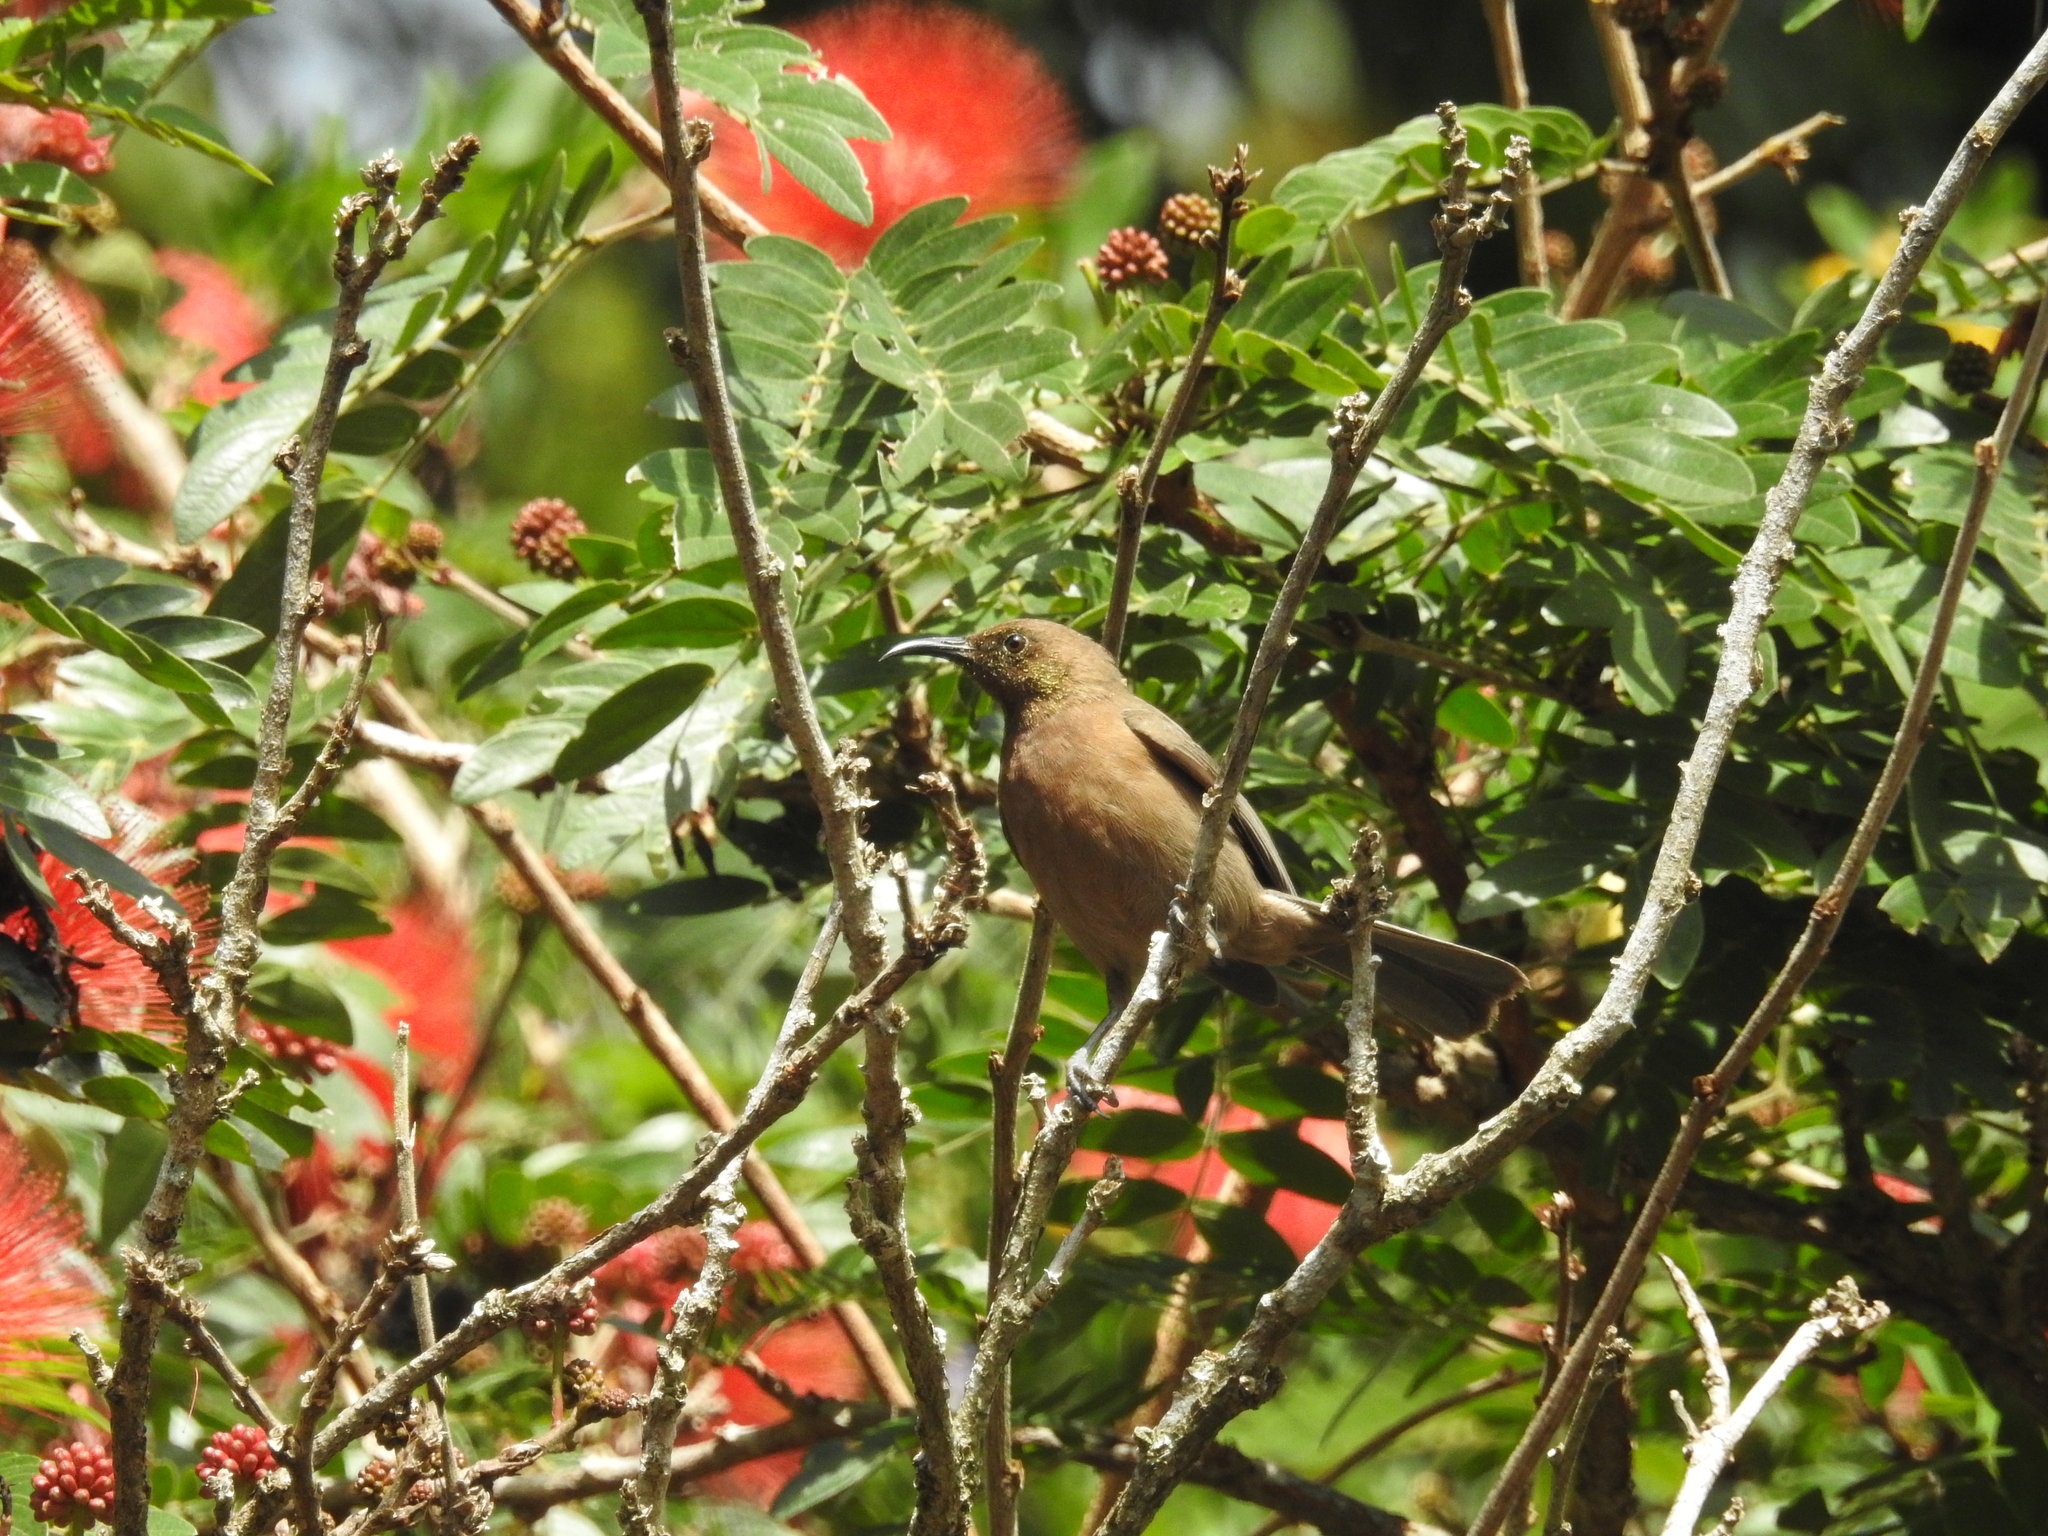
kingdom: Animalia
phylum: Chordata
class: Aves
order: Passeriformes
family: Meliphagidae
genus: Myzomela
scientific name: Myzomela obscura
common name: Dusky myzomela
